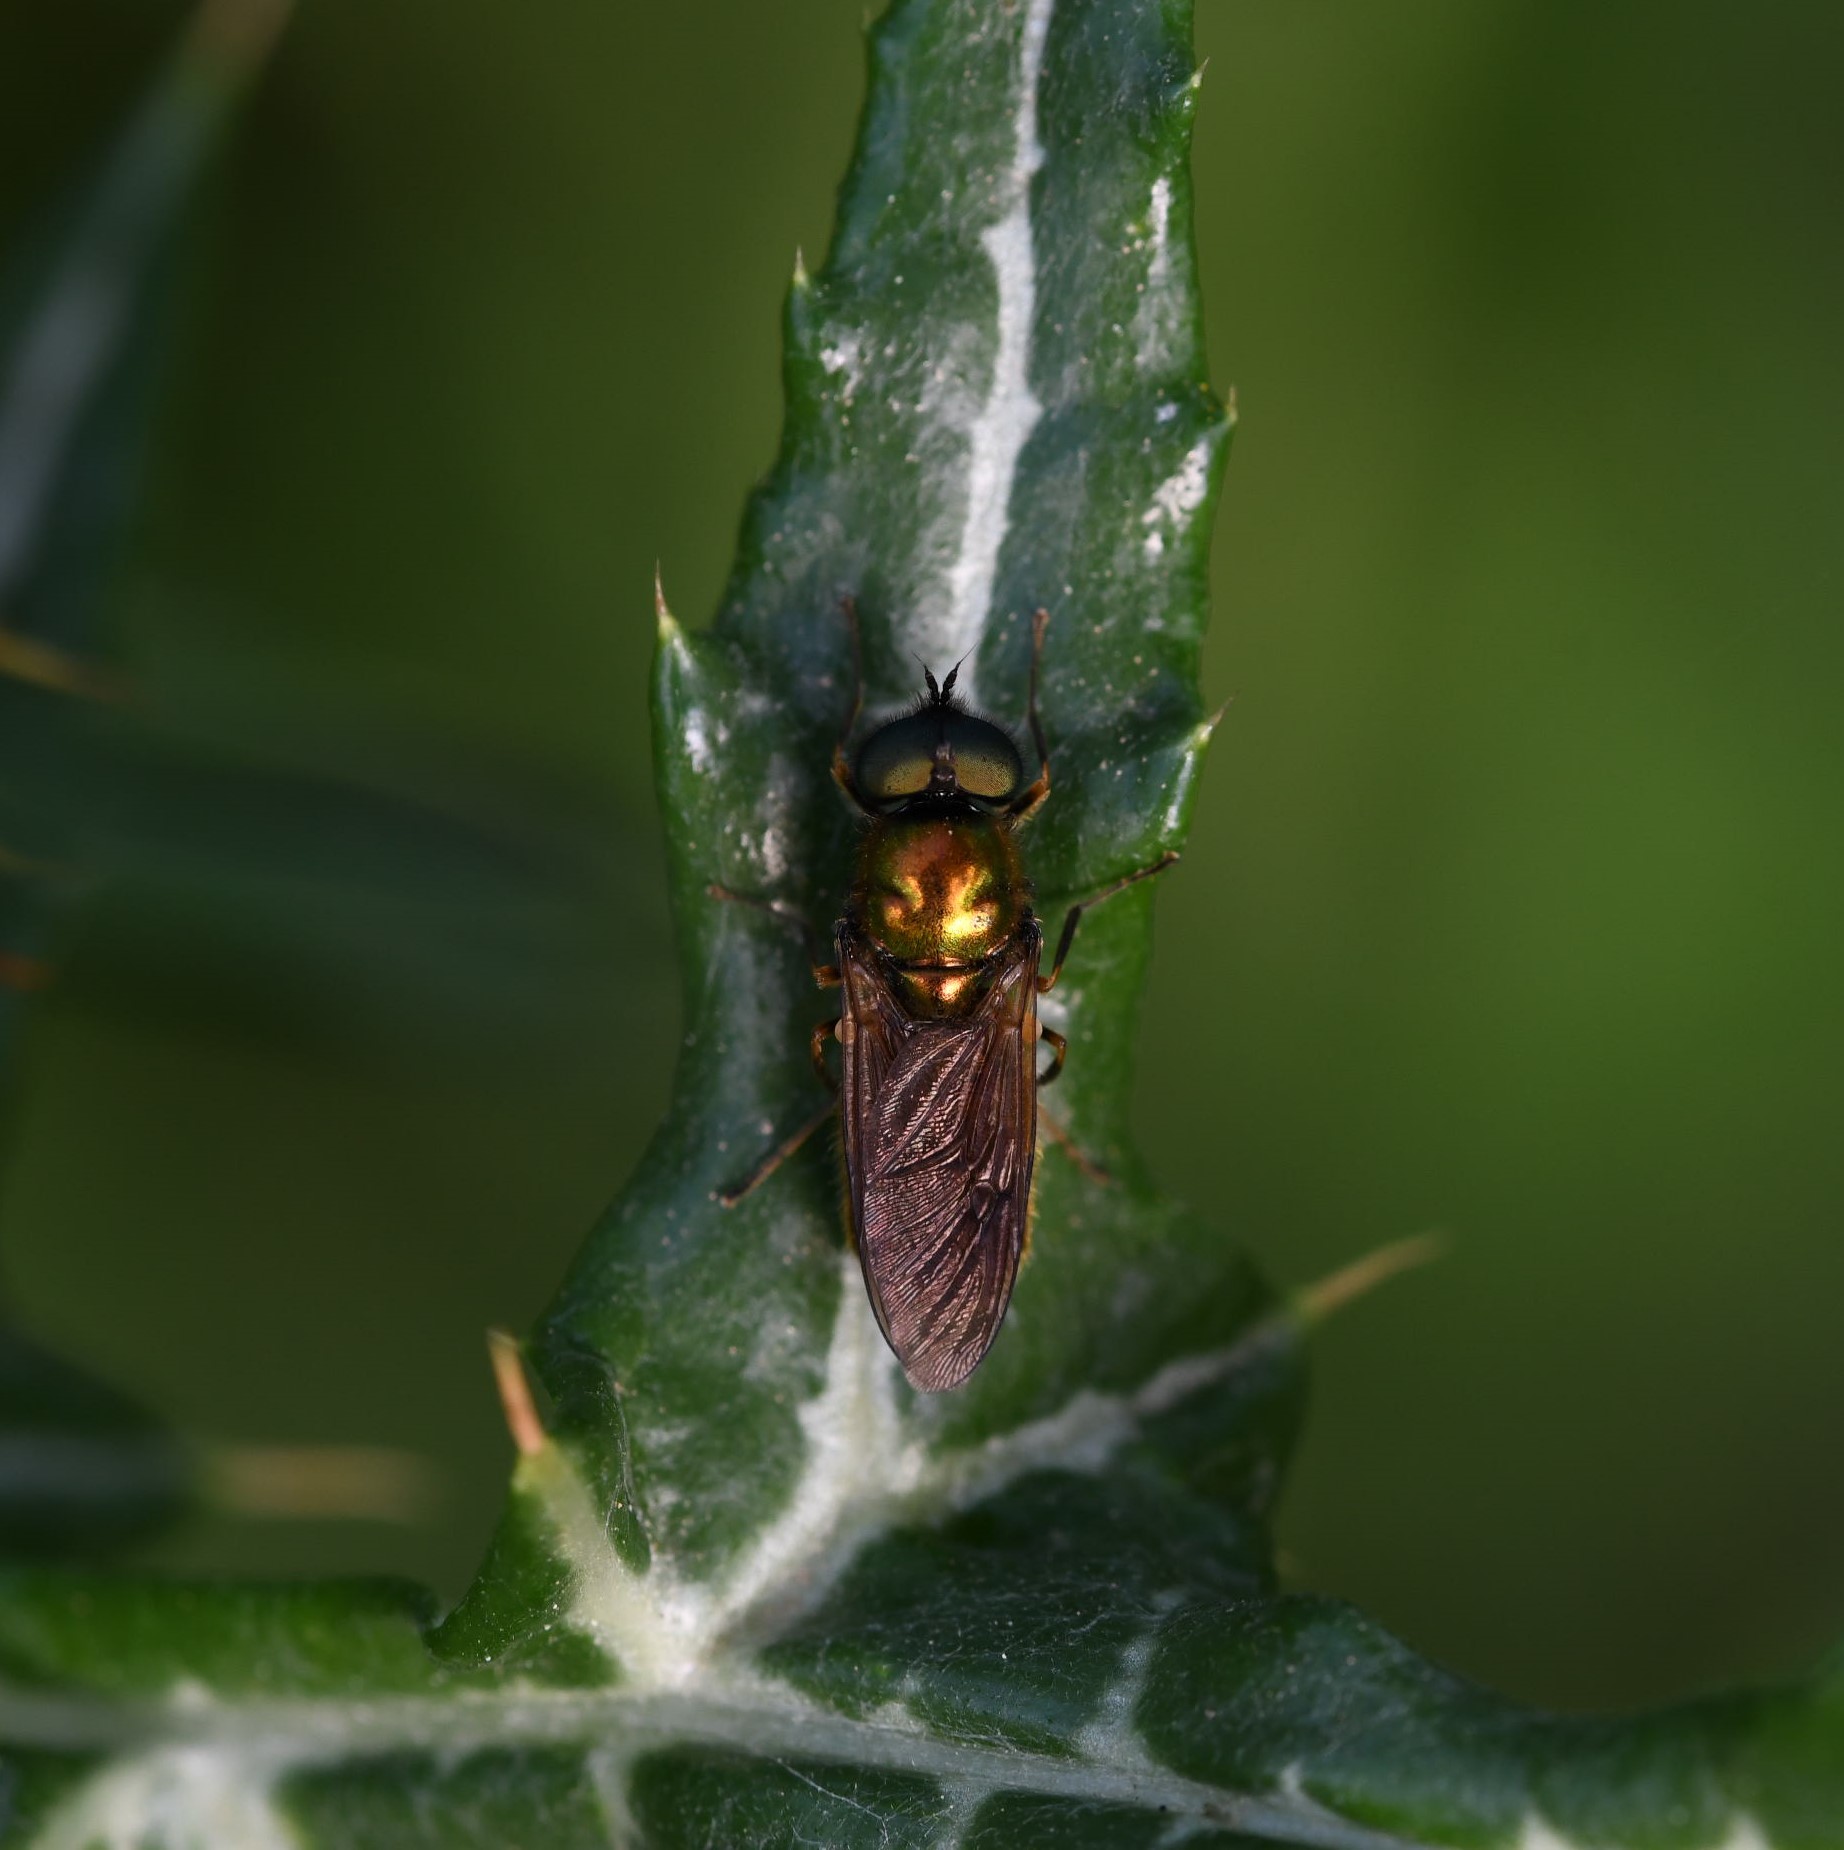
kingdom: Animalia
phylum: Arthropoda
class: Insecta
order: Diptera
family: Stratiomyidae
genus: Chloromyia
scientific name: Chloromyia formosa
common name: Soldier fly
